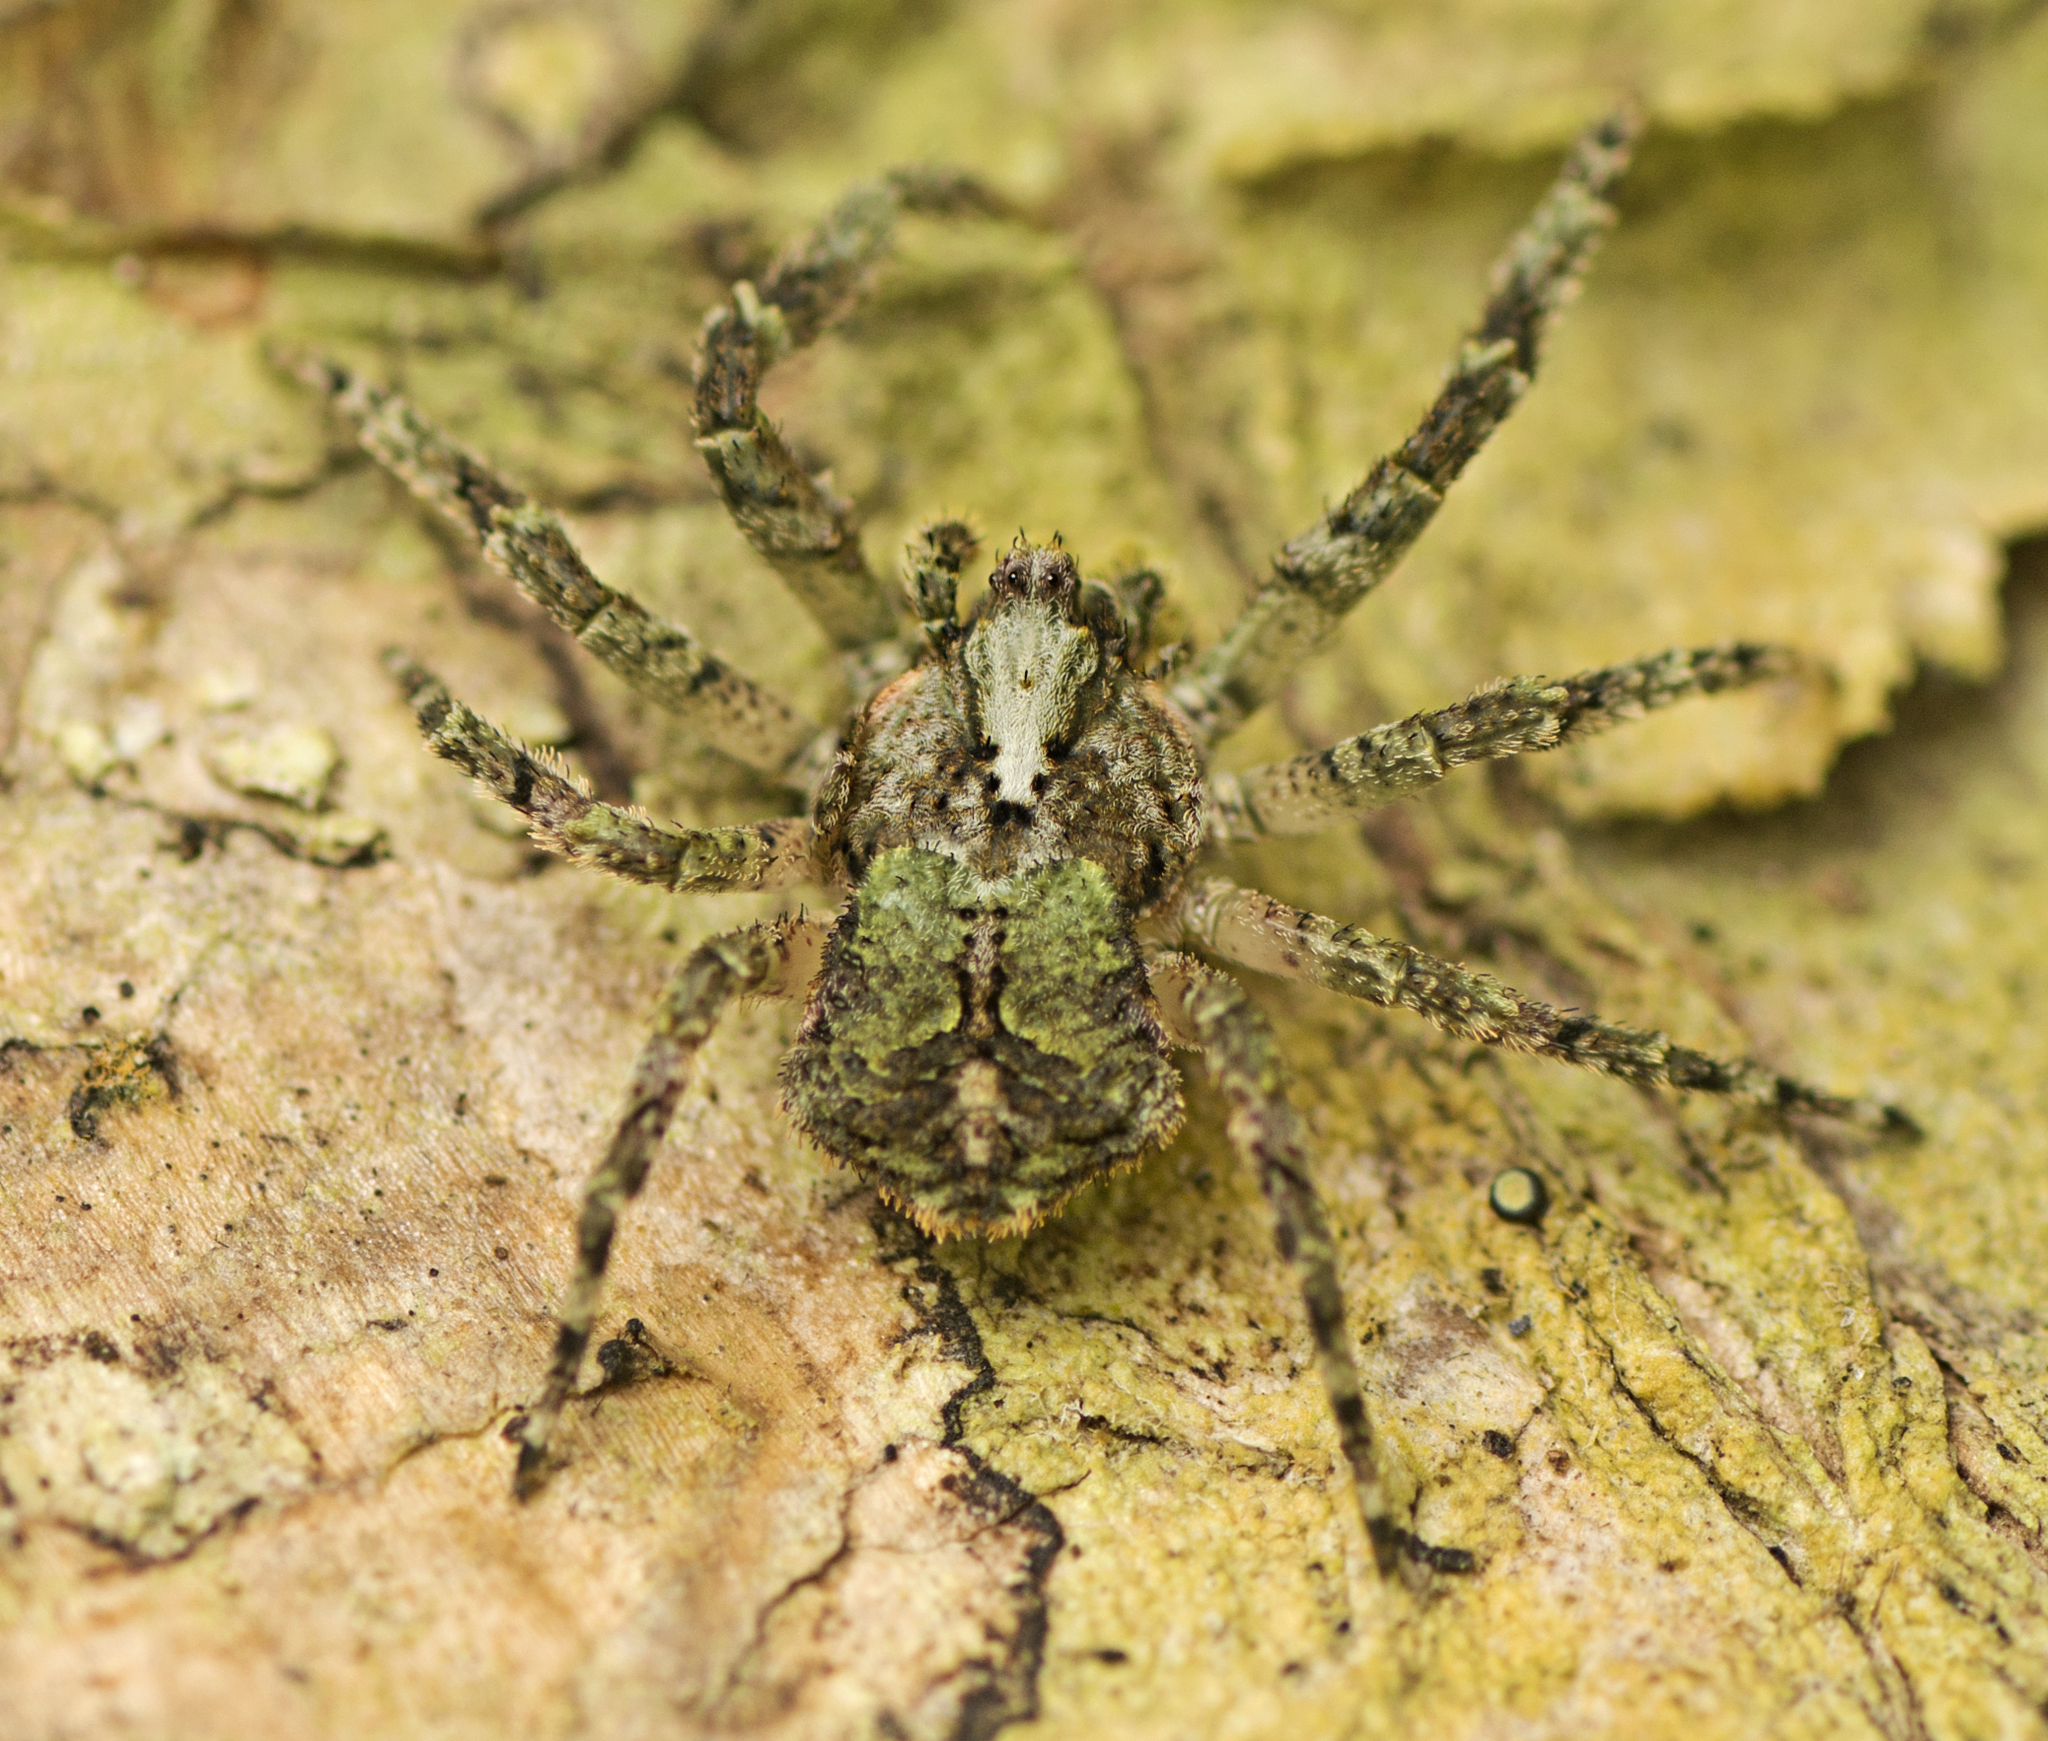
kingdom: Animalia
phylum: Arthropoda
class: Arachnida
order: Araneae
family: Thomisidae
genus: Stephanopis
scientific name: Stephanopis carcinoides
